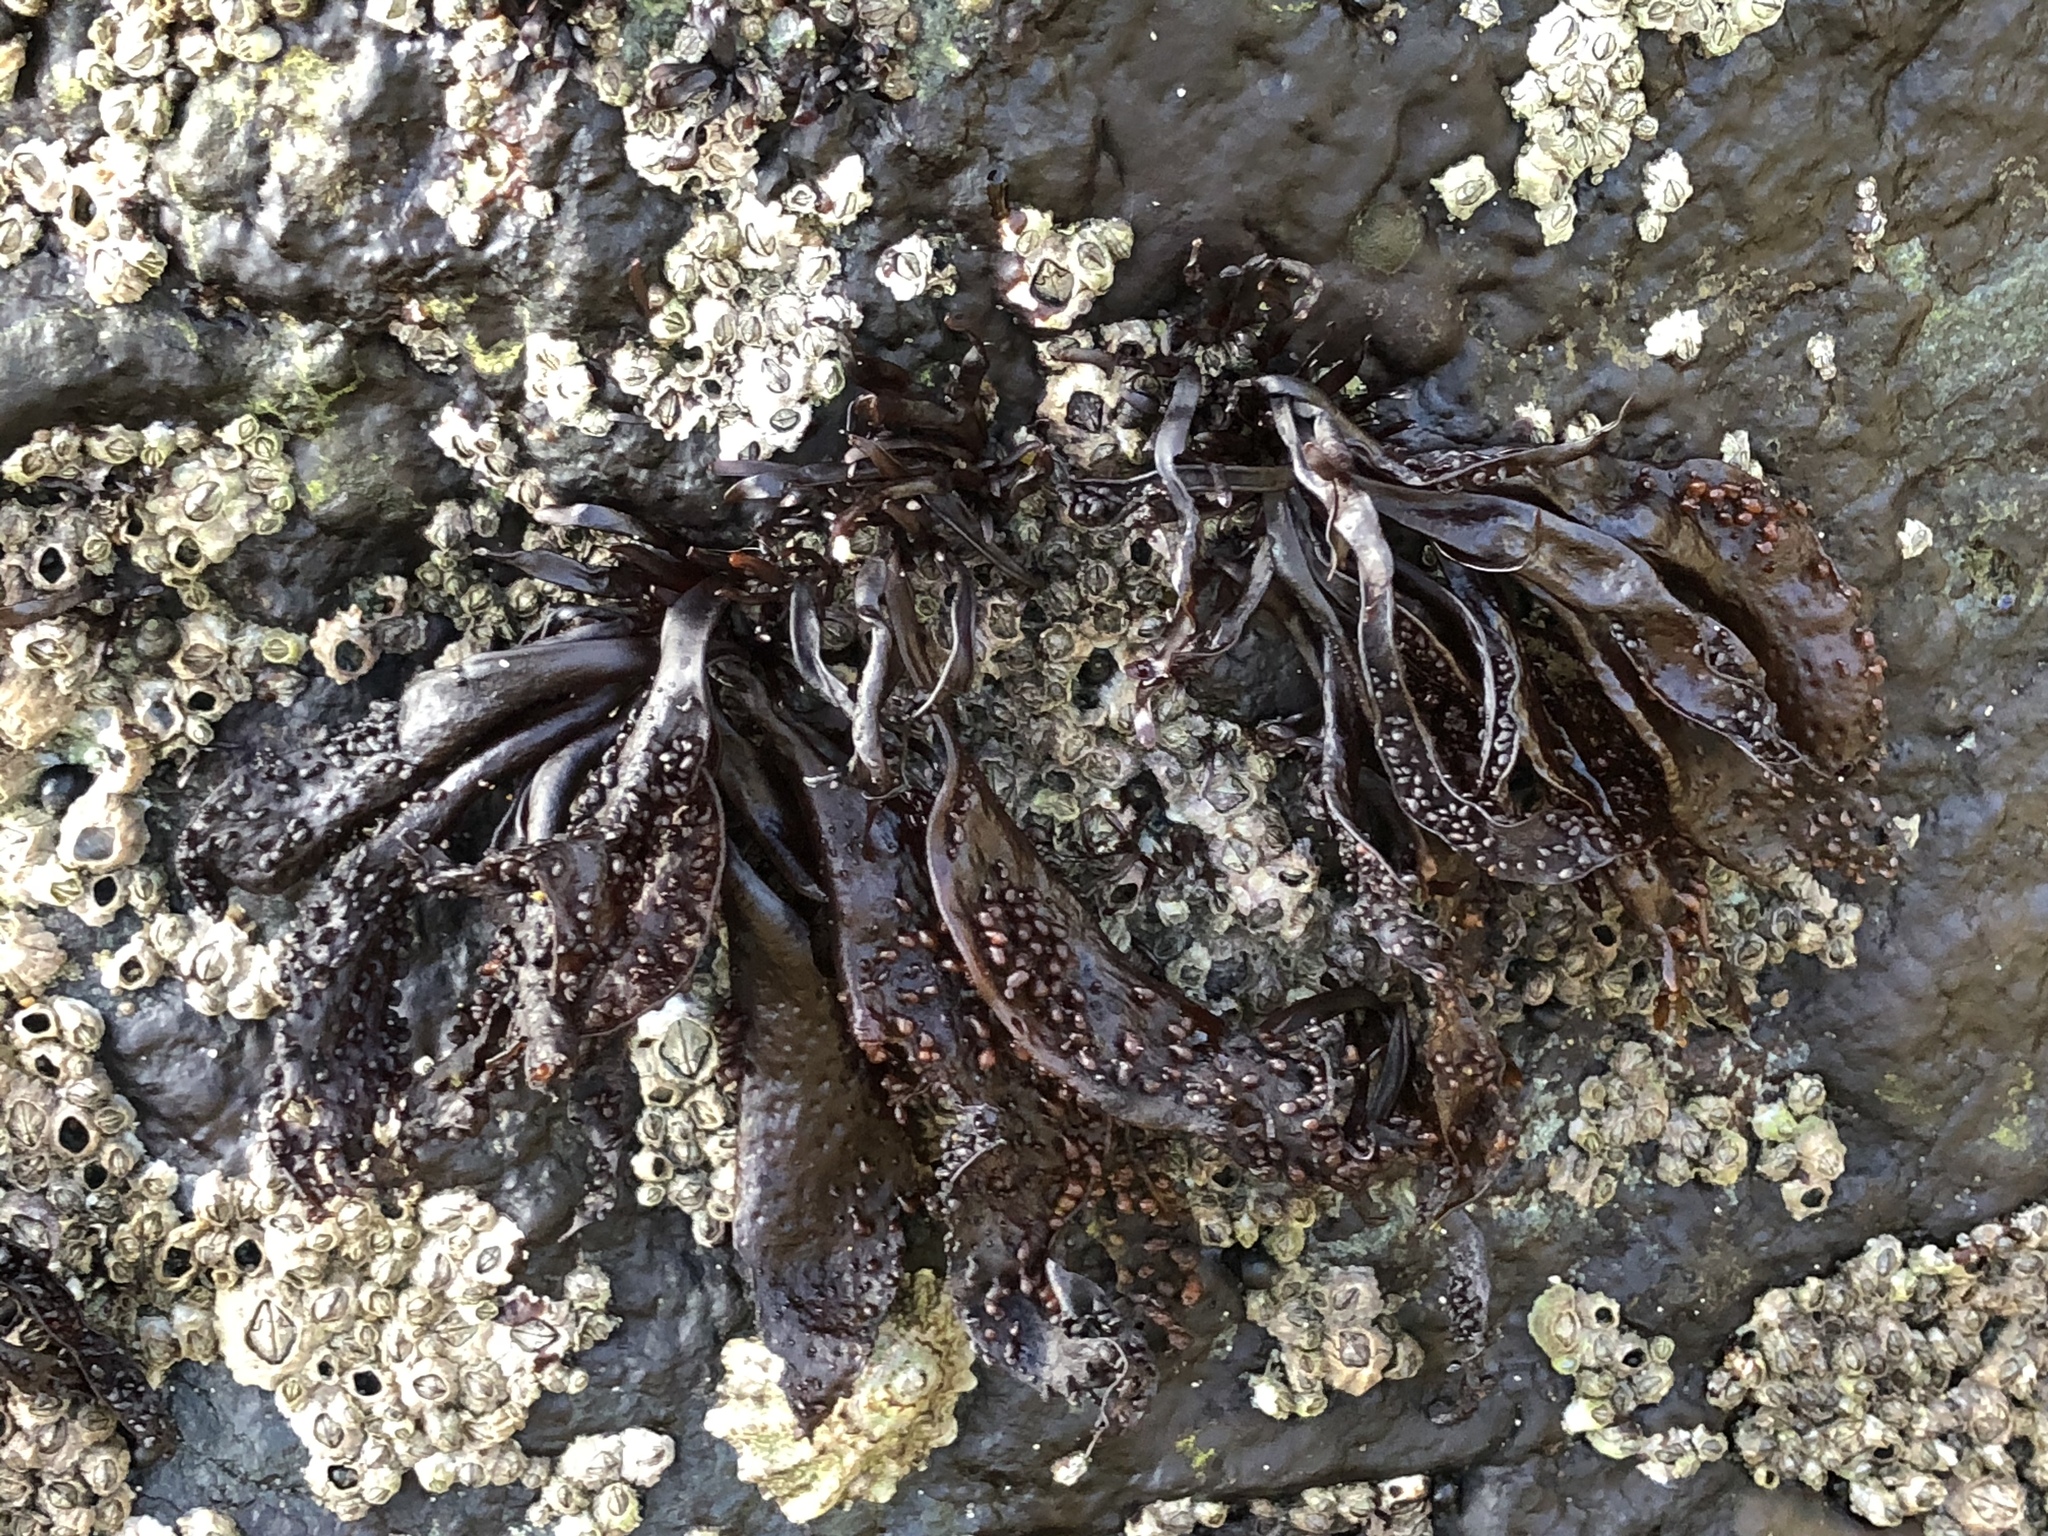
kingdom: Plantae
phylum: Rhodophyta
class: Florideophyceae
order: Gigartinales
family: Phyllophoraceae
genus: Mastocarpus
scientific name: Mastocarpus papillatus
